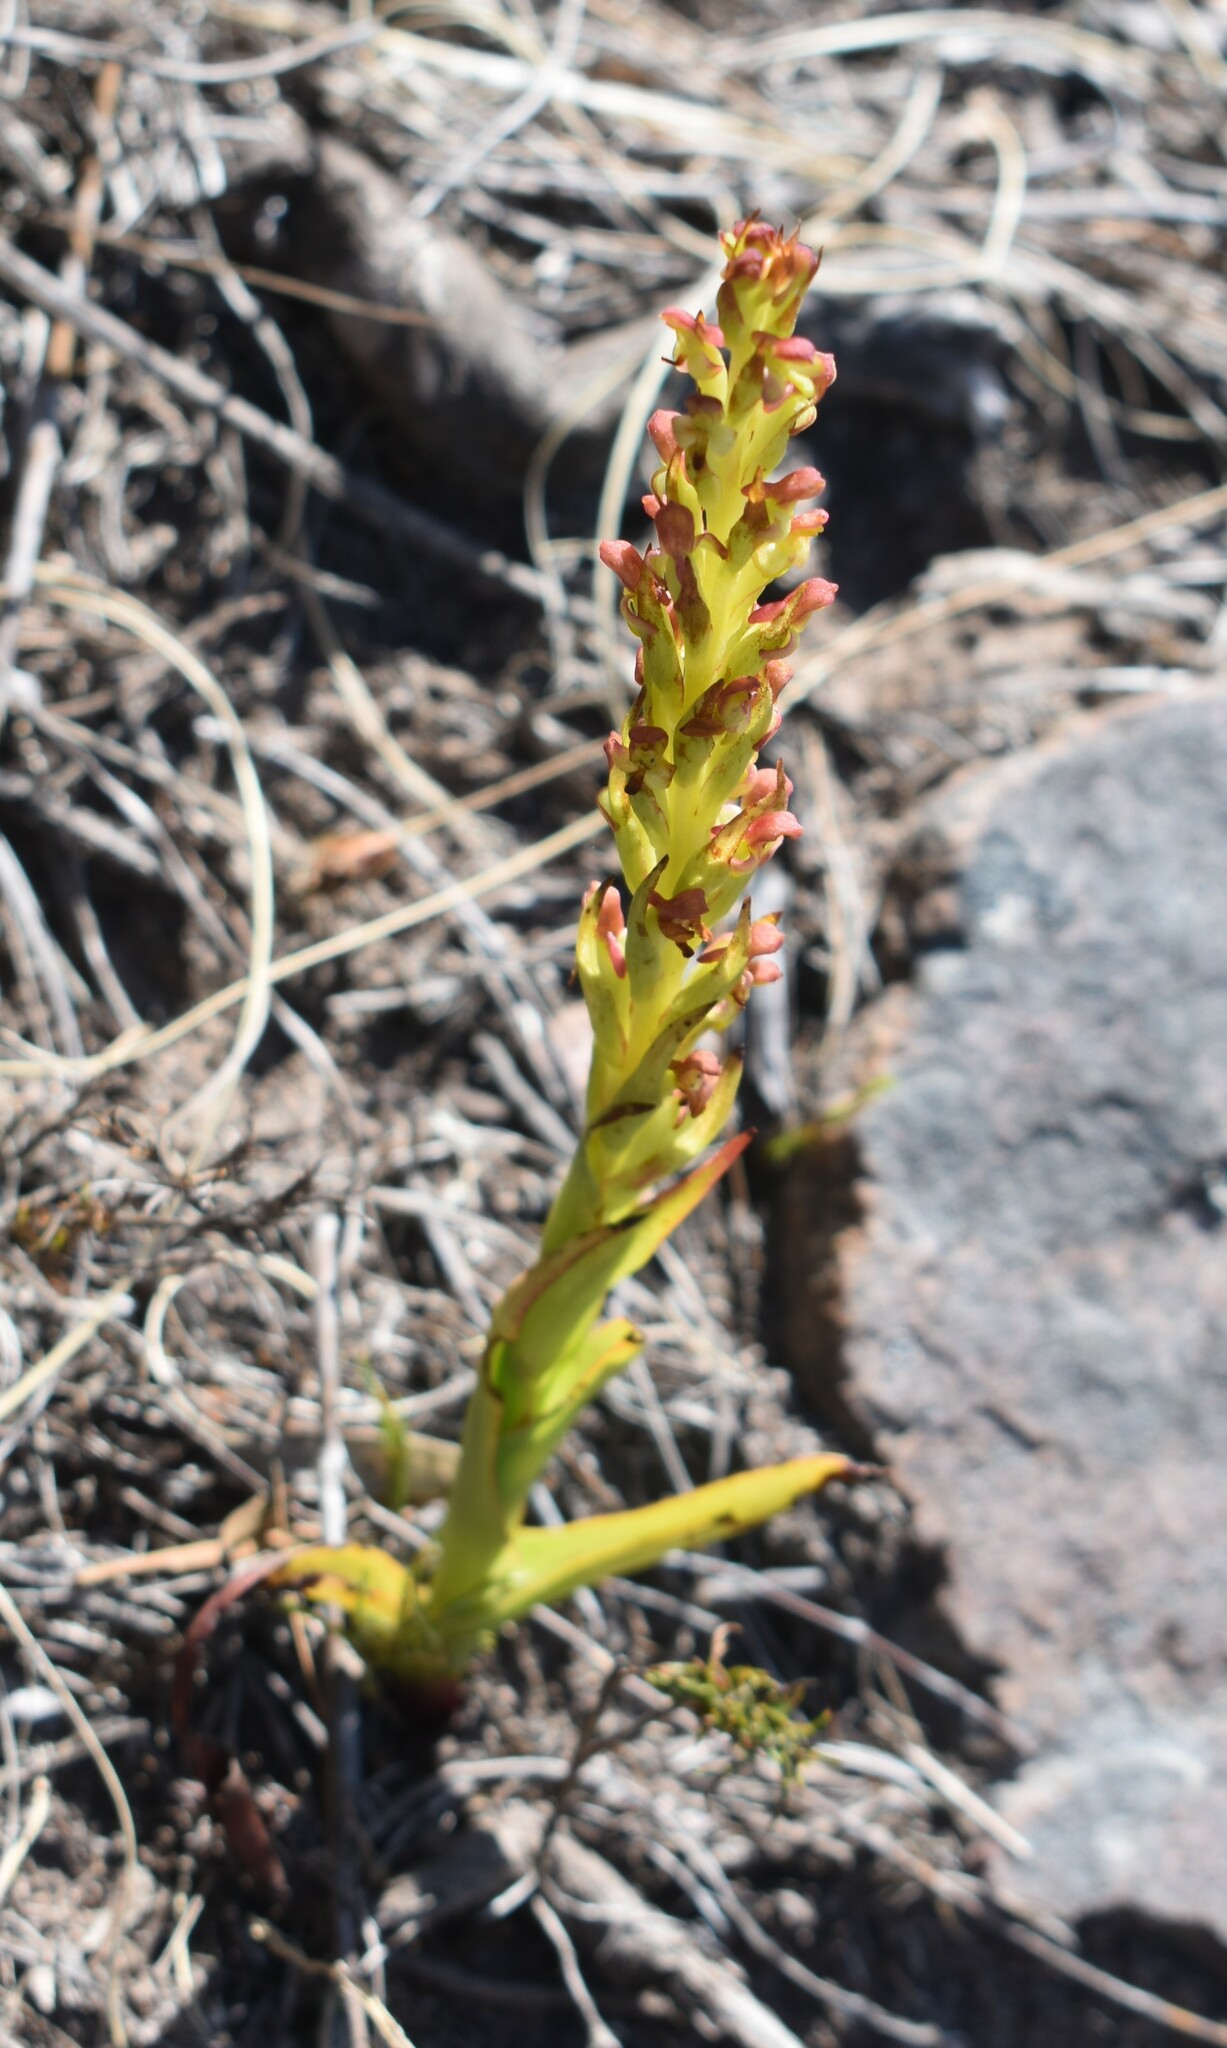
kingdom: Plantae
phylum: Tracheophyta
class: Liliopsida
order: Asparagales
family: Orchidaceae
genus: Disa
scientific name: Disa densiflora
